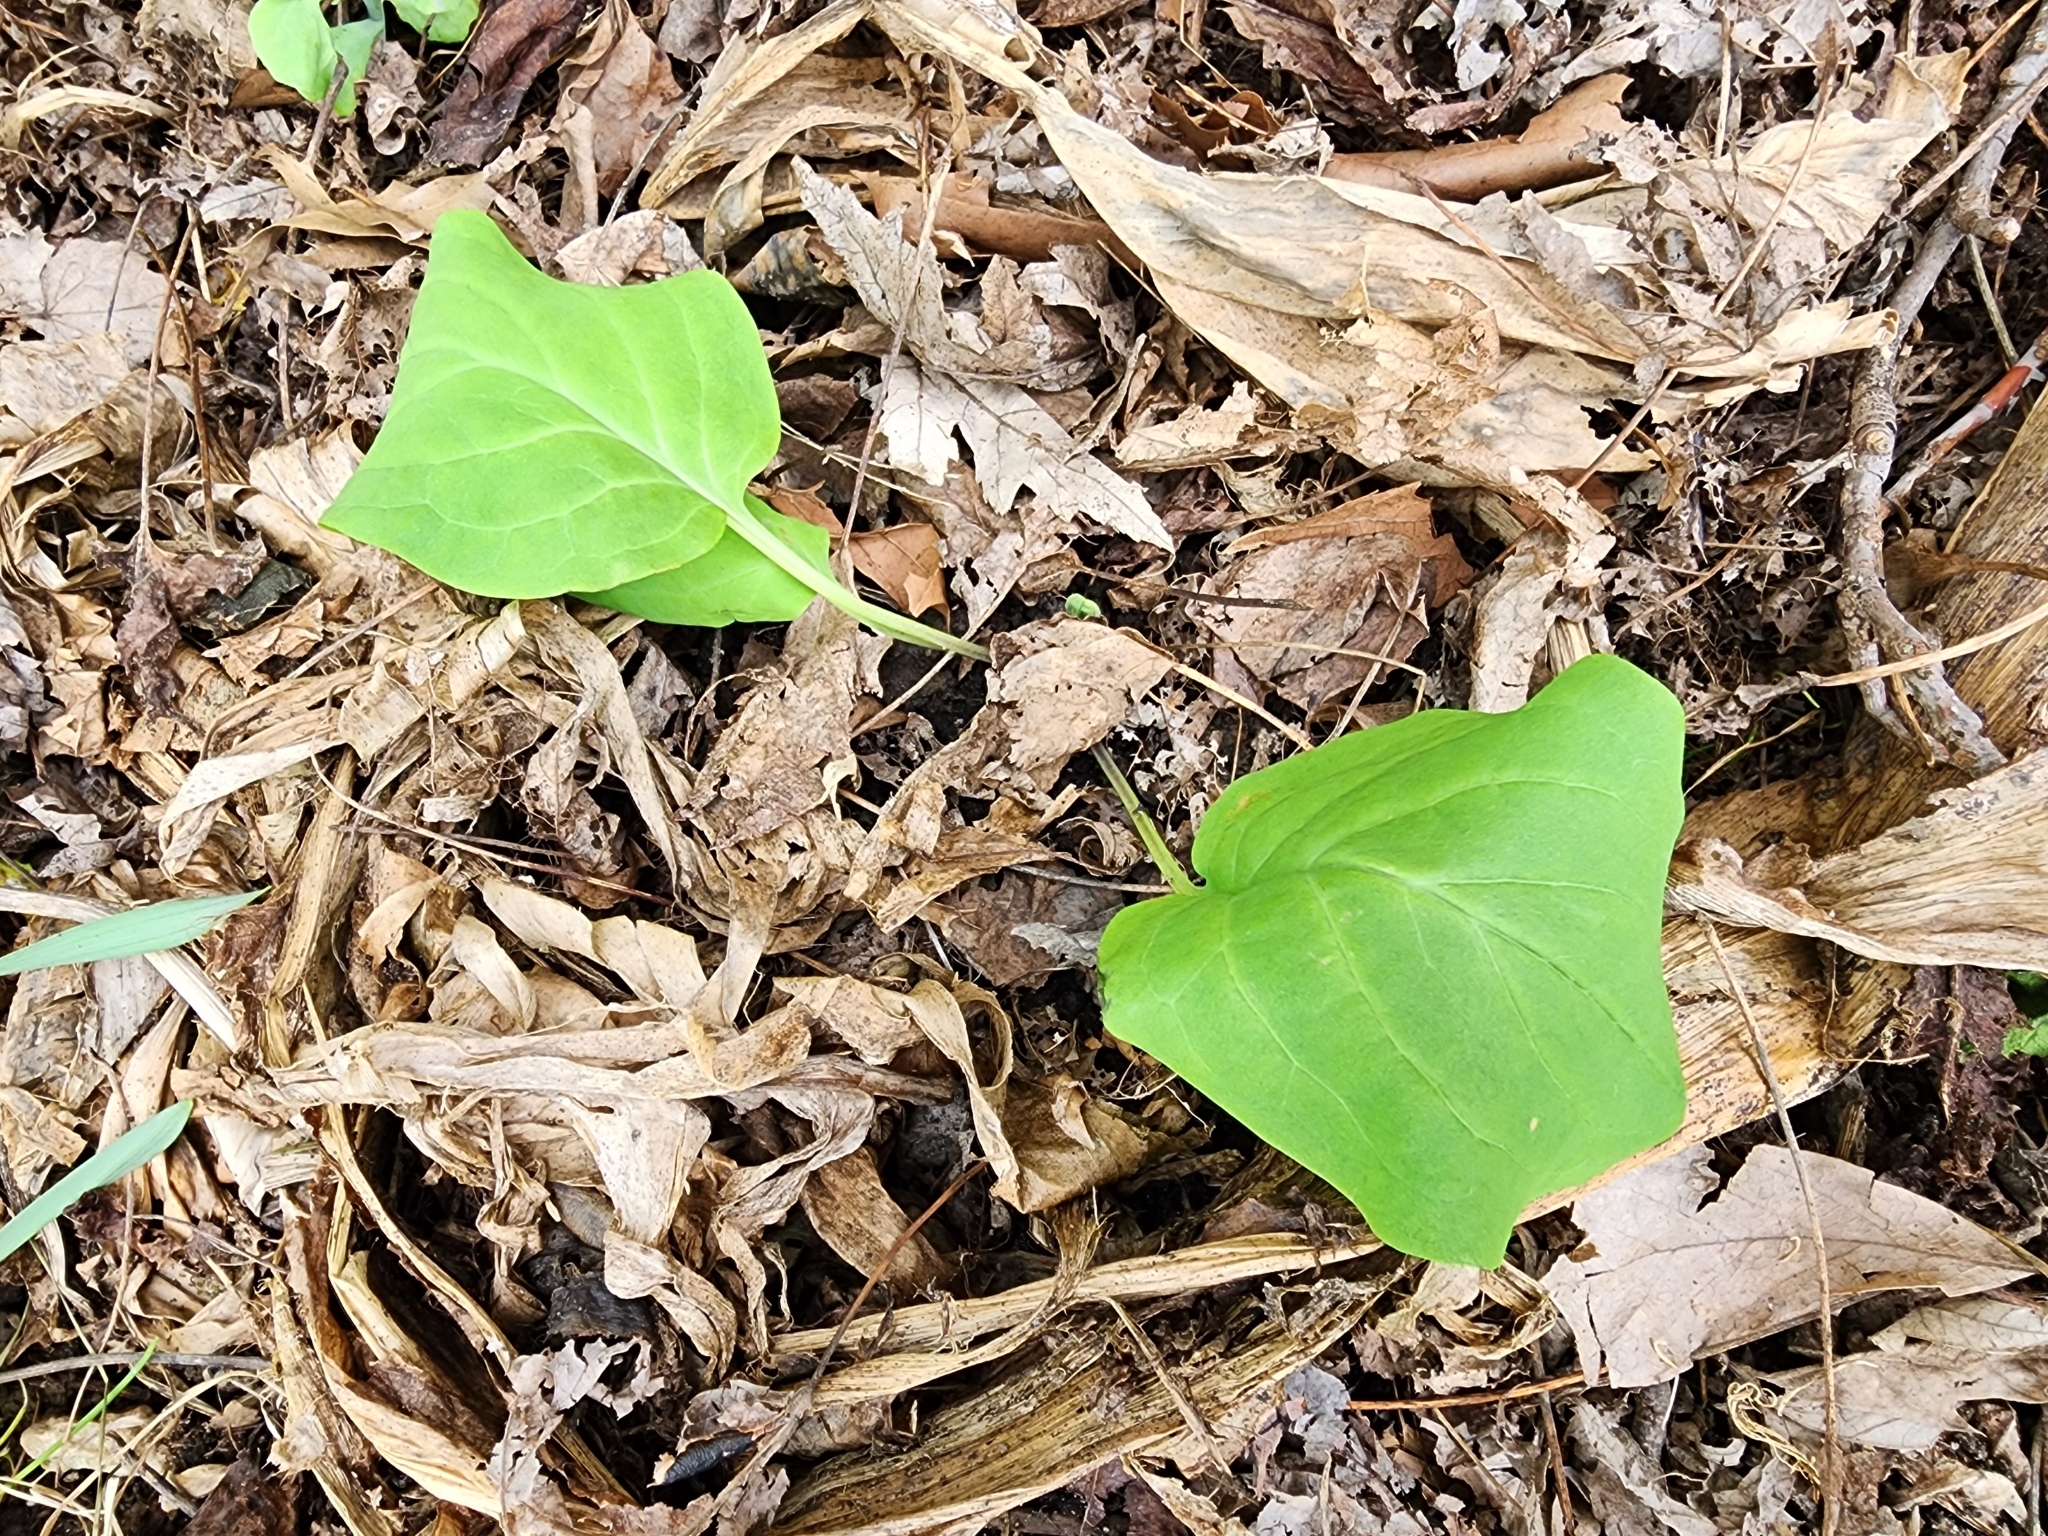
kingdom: Plantae
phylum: Tracheophyta
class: Magnoliopsida
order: Boraginales
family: Boraginaceae
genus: Mertensia
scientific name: Mertensia virginica
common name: Virginia bluebells
